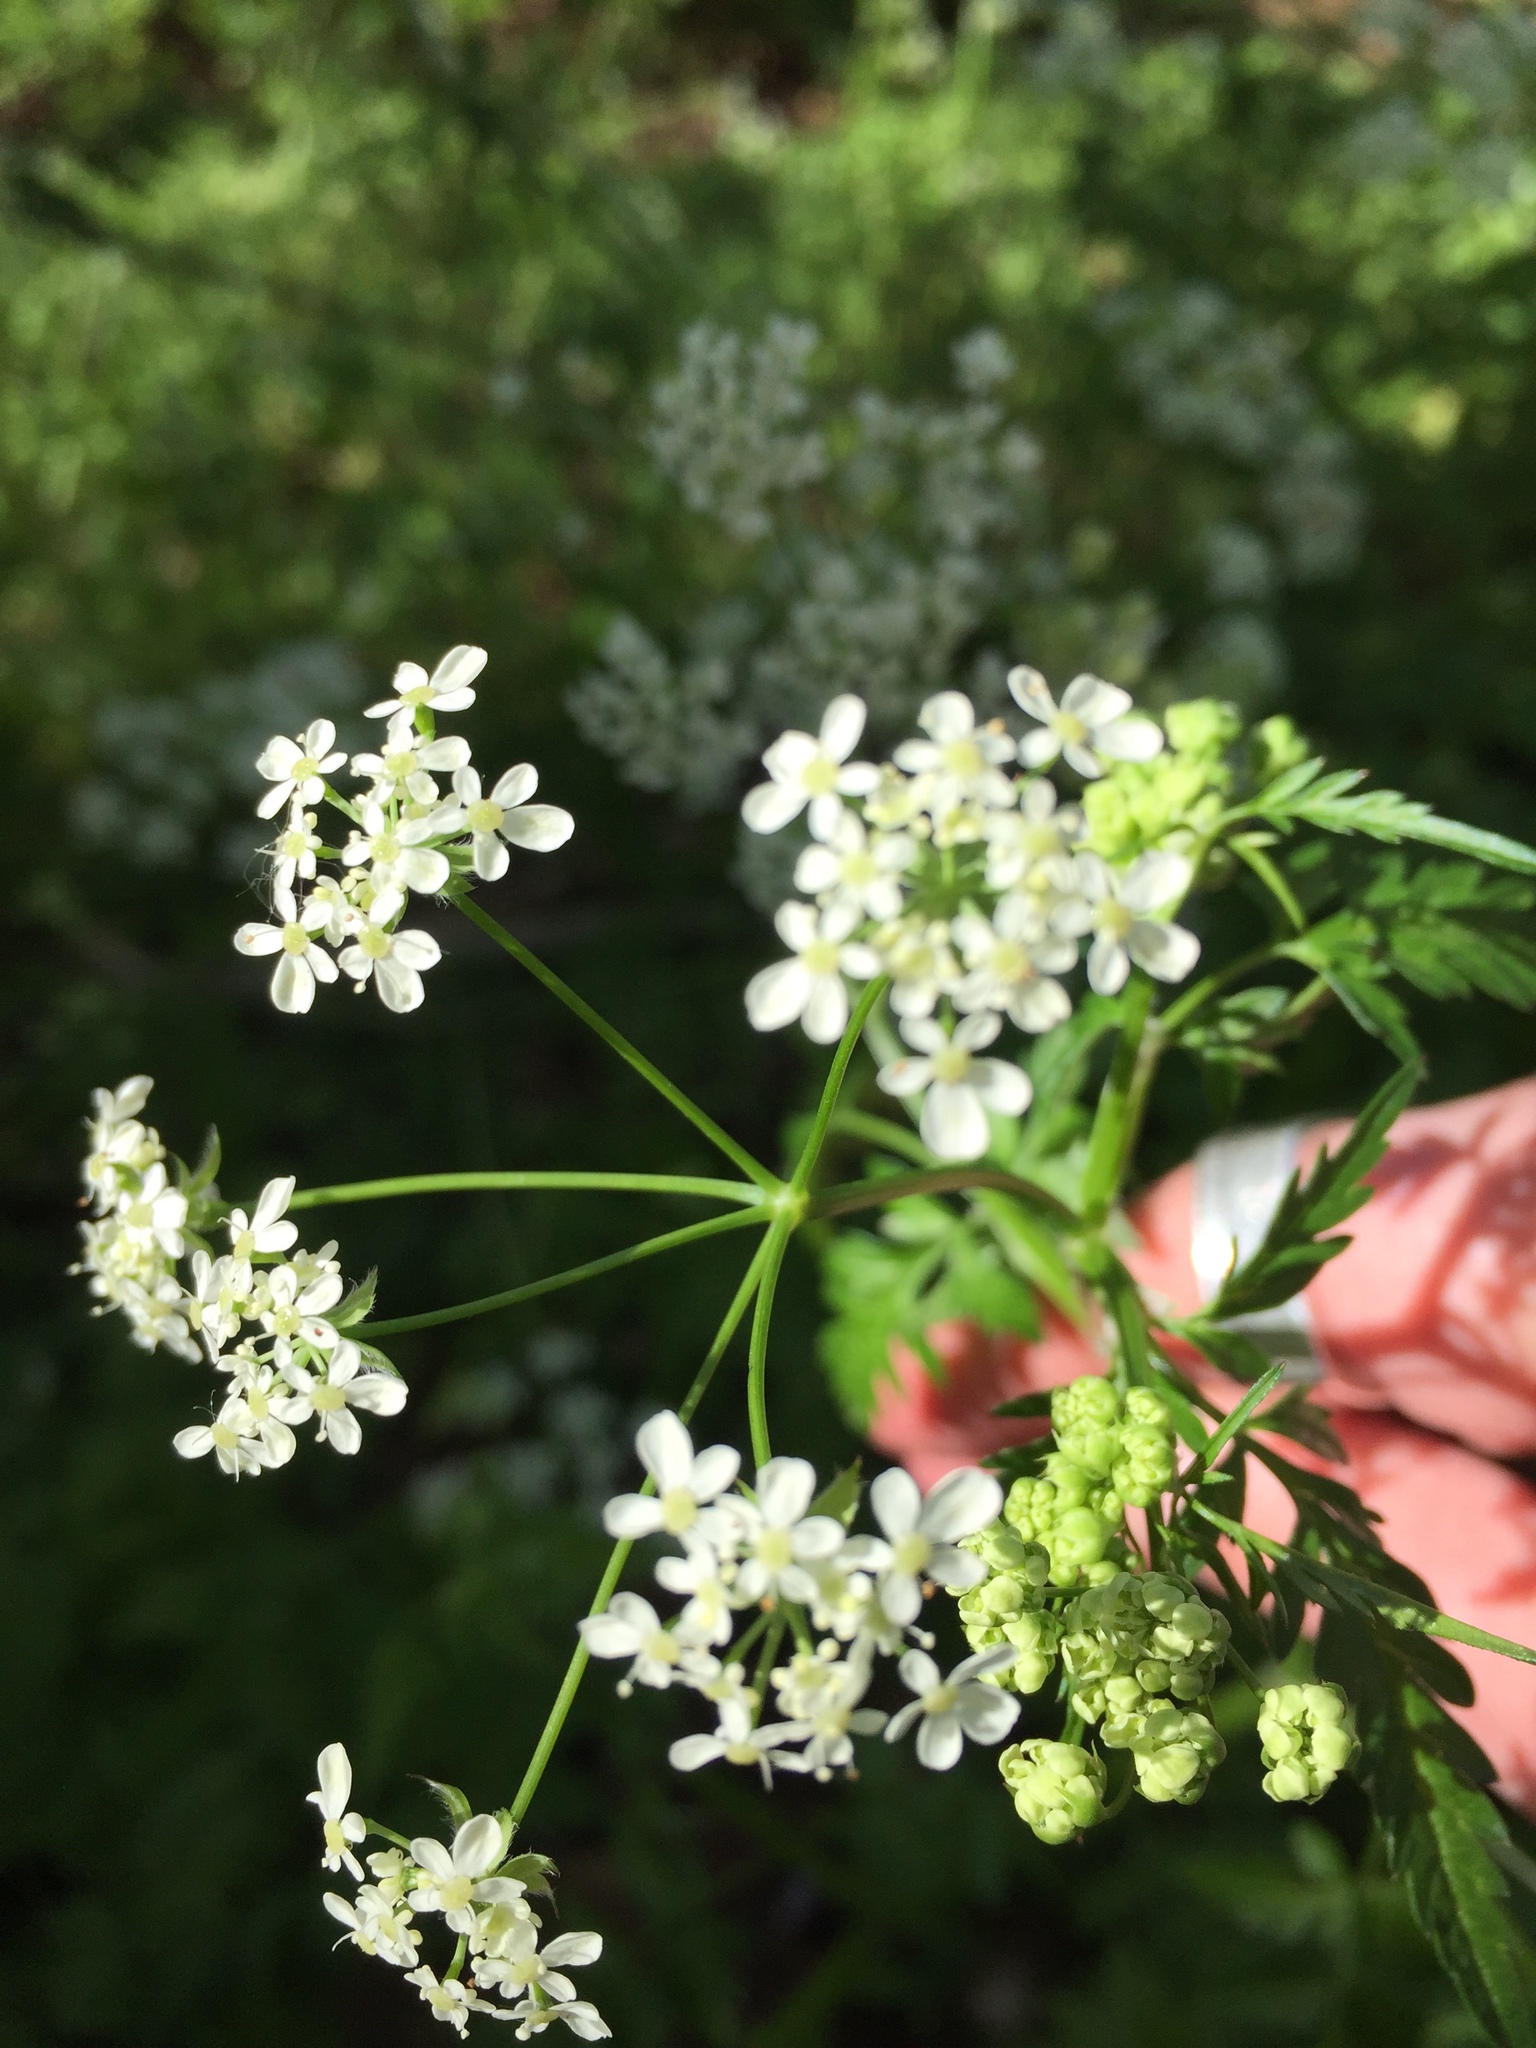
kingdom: Plantae
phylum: Tracheophyta
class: Magnoliopsida
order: Apiales
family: Apiaceae
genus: Anthriscus
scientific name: Anthriscus sylvestris
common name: Cow parsley
